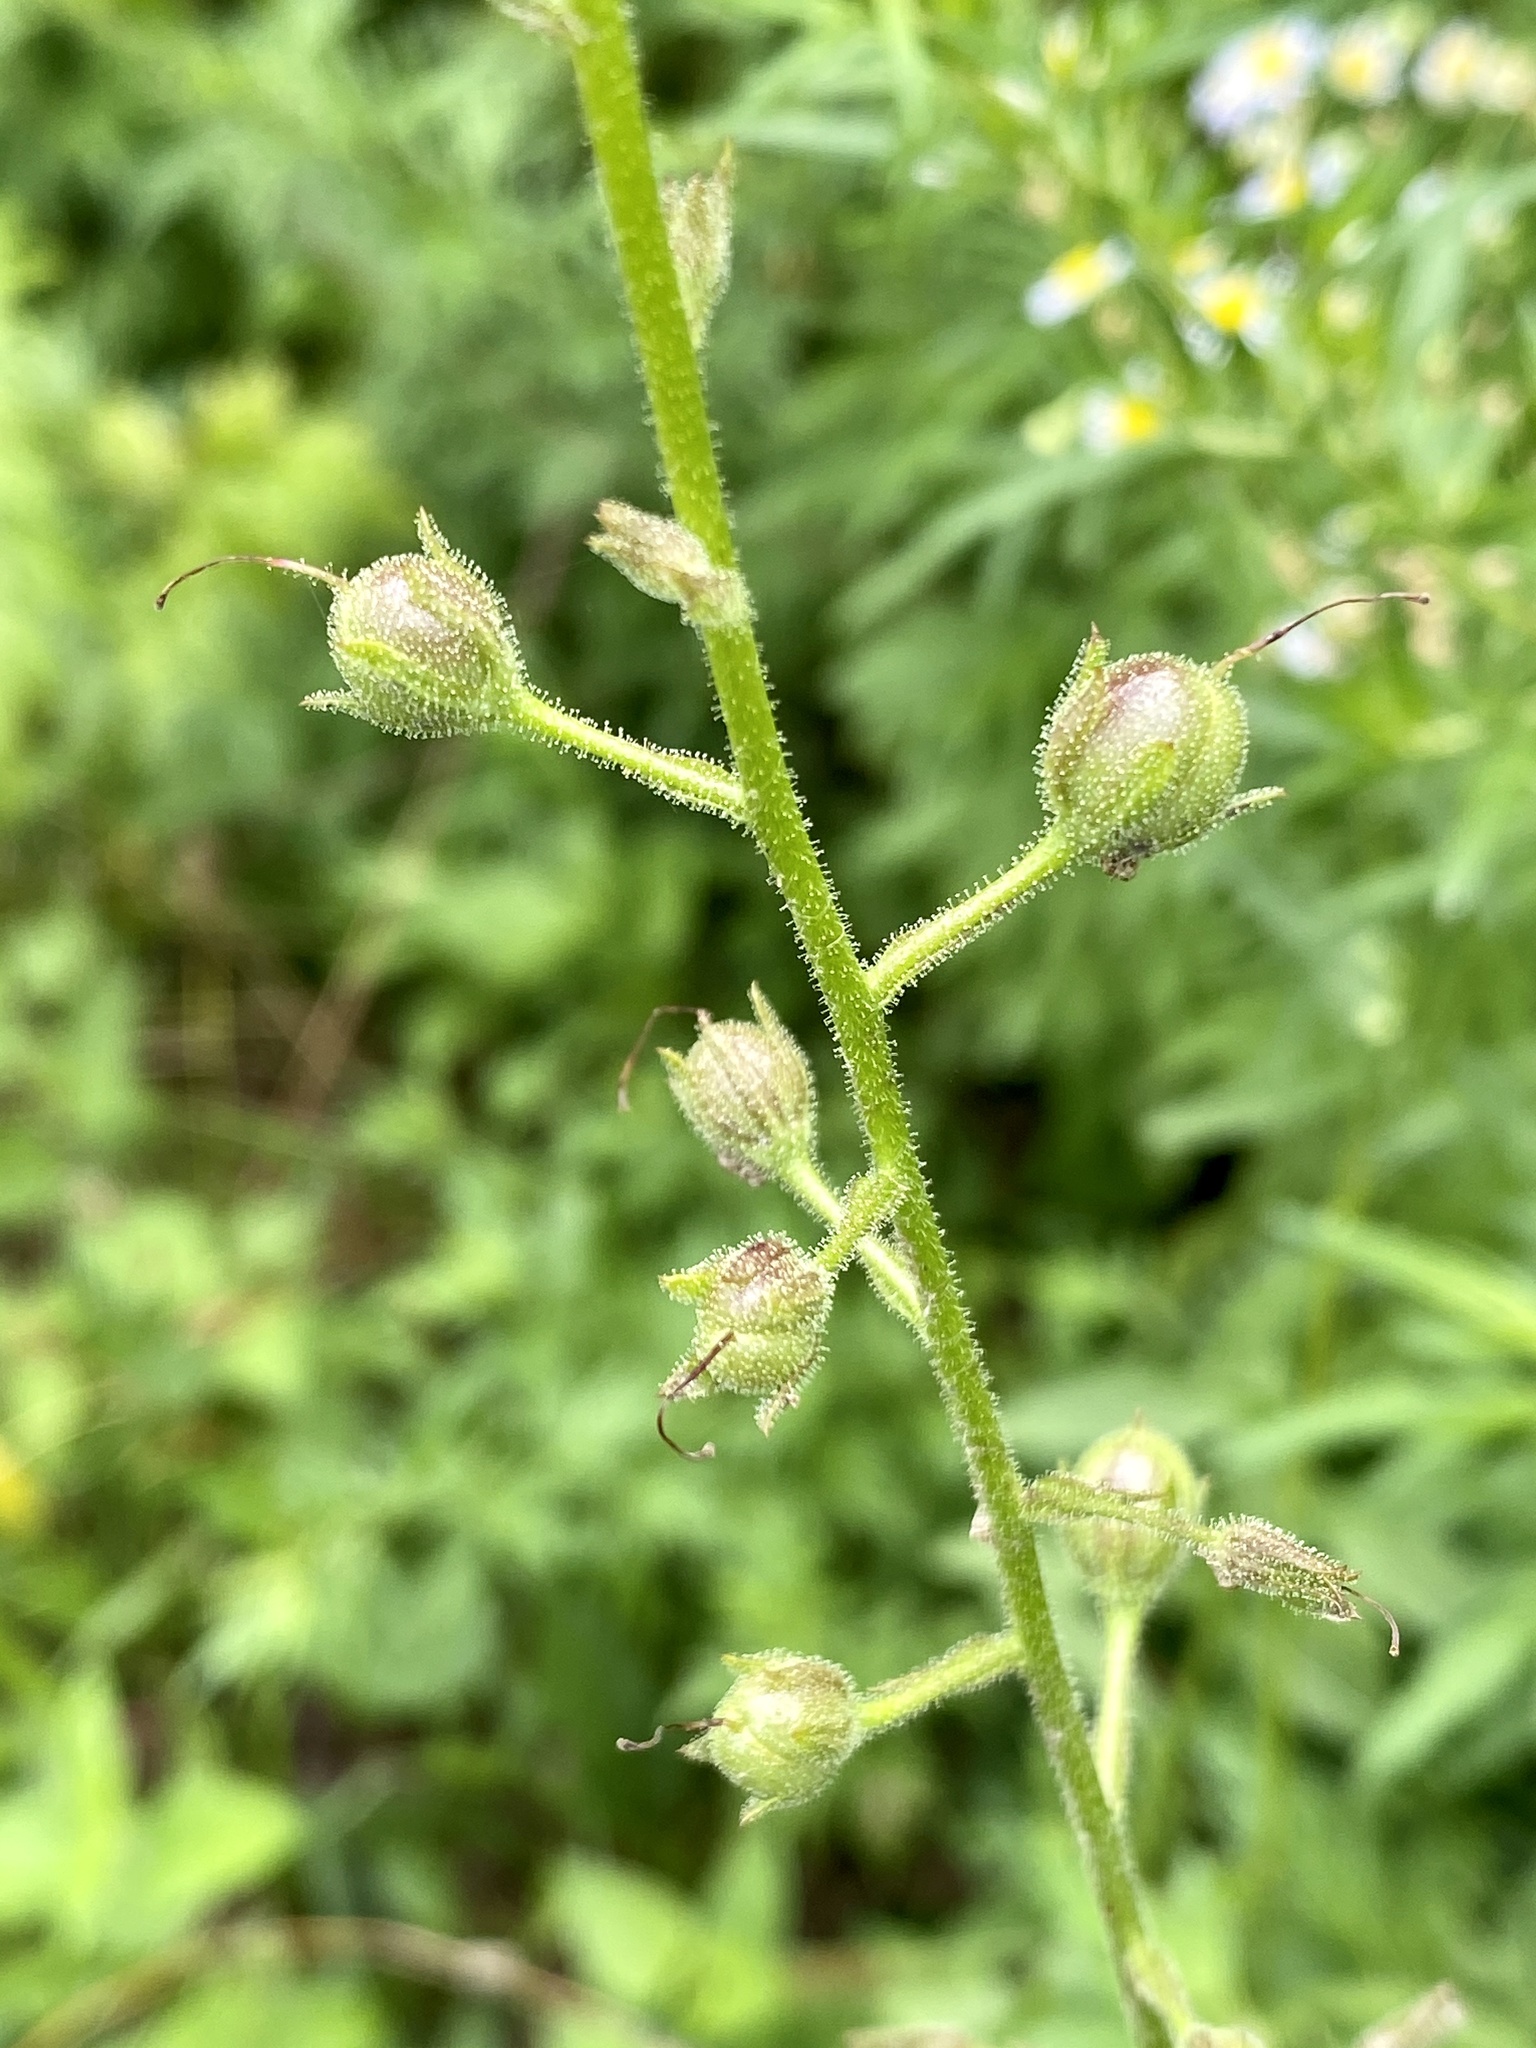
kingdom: Plantae
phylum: Tracheophyta
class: Magnoliopsida
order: Lamiales
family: Scrophulariaceae
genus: Verbascum
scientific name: Verbascum blattaria
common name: Moth mullein
